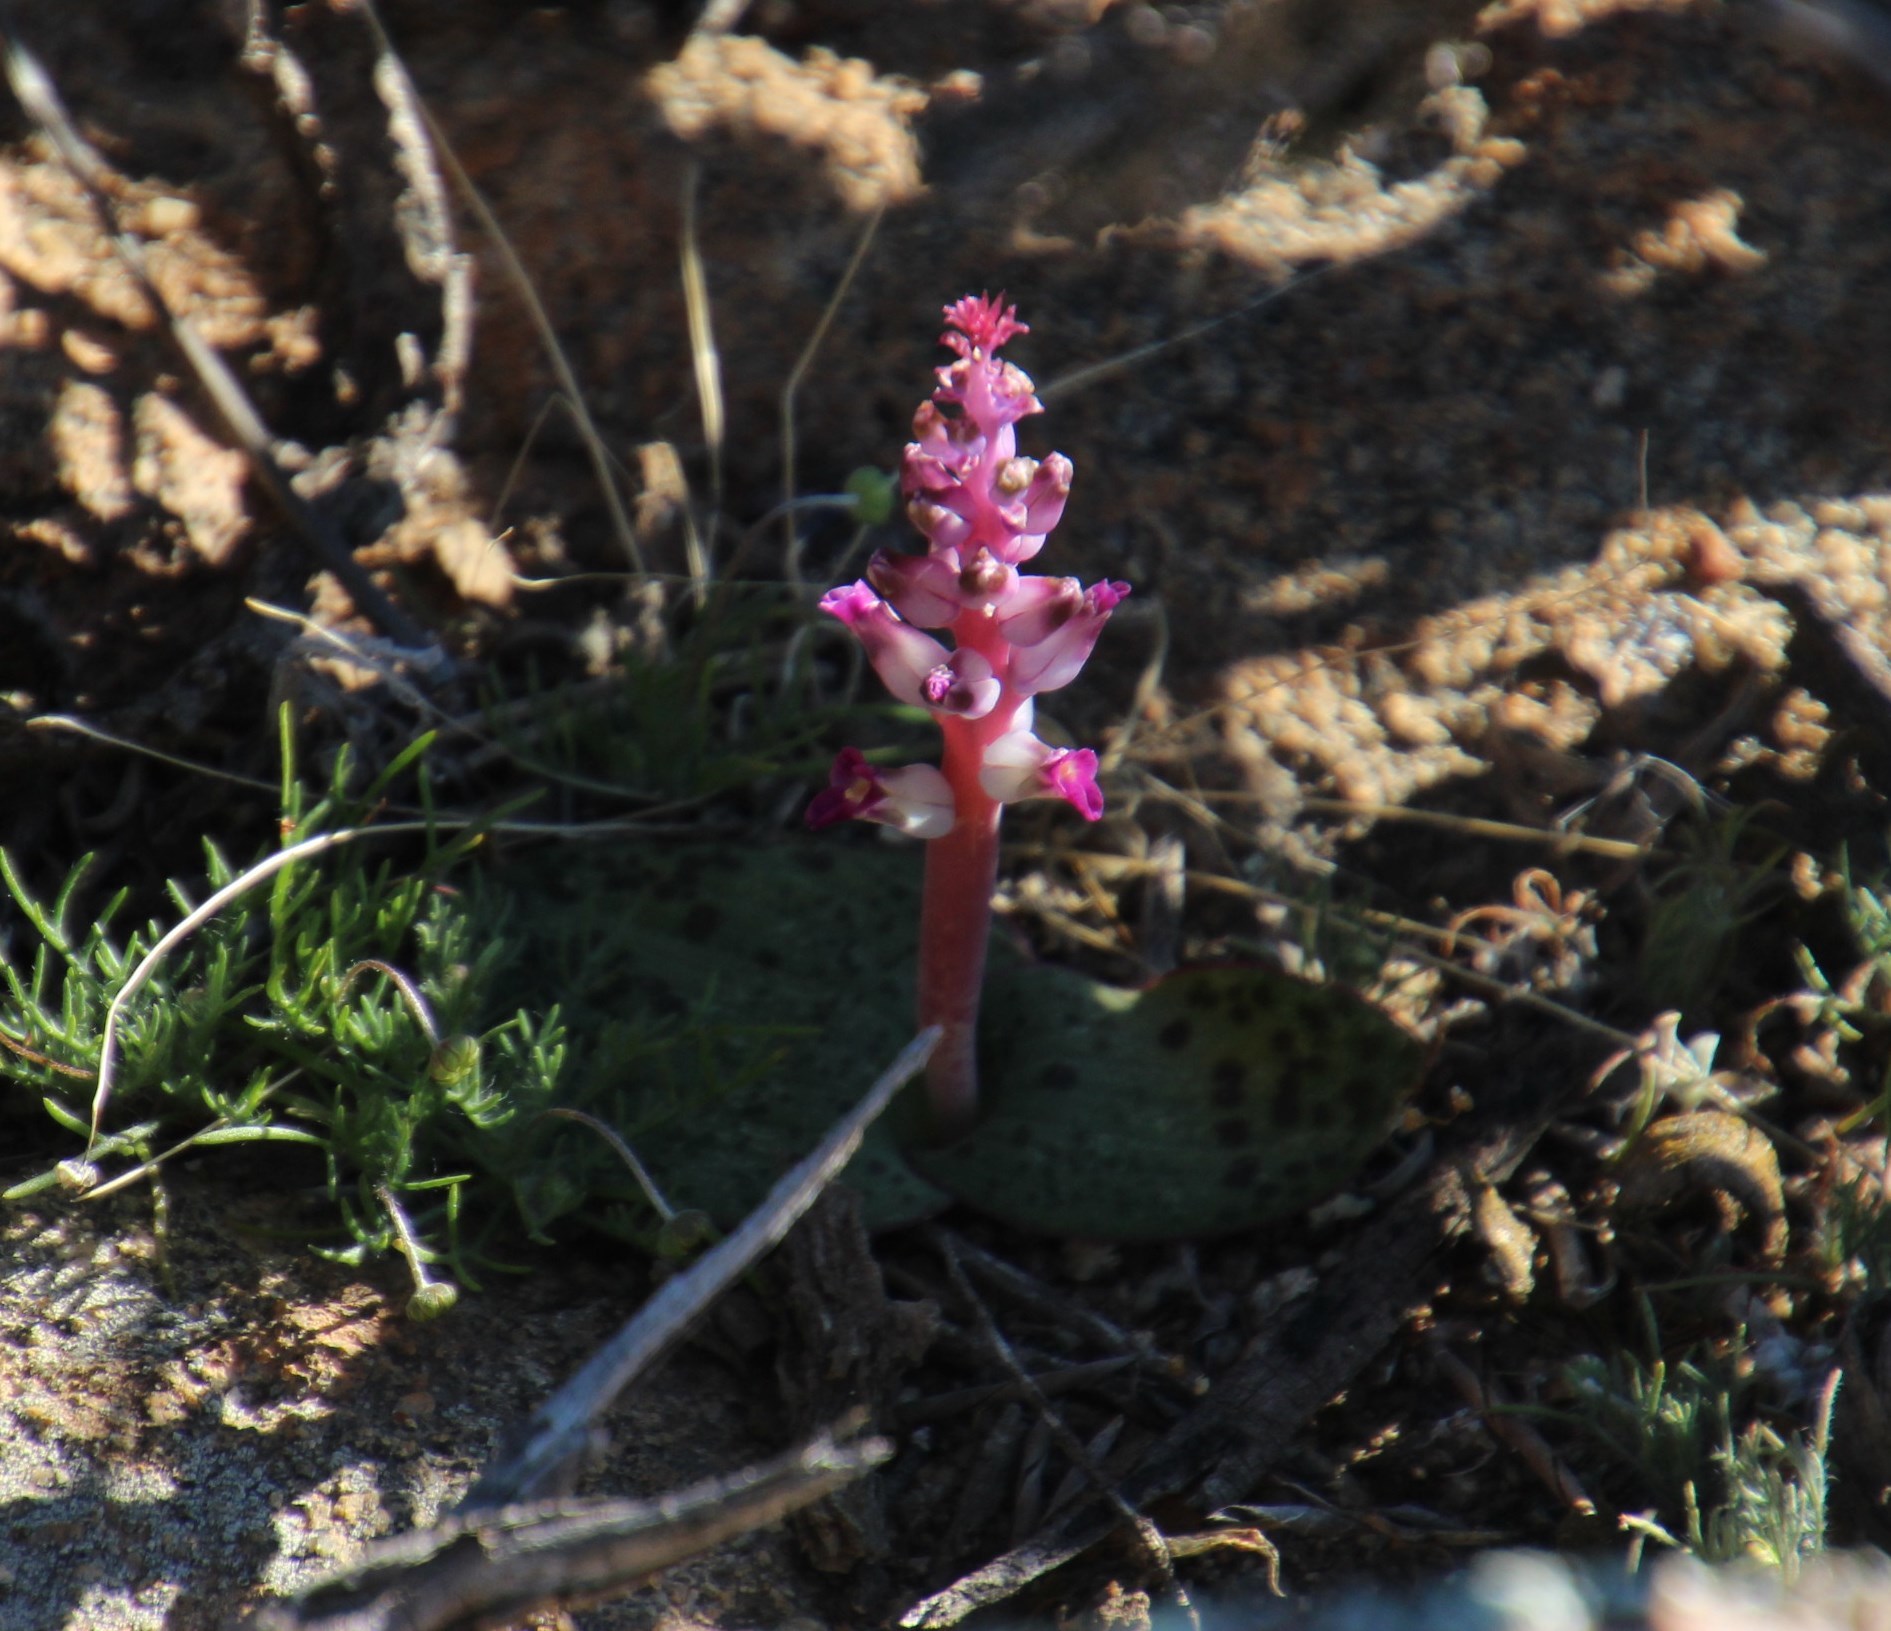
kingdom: Plantae
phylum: Tracheophyta
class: Liliopsida
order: Asparagales
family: Asparagaceae
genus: Lachenalia
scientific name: Lachenalia carnosa
